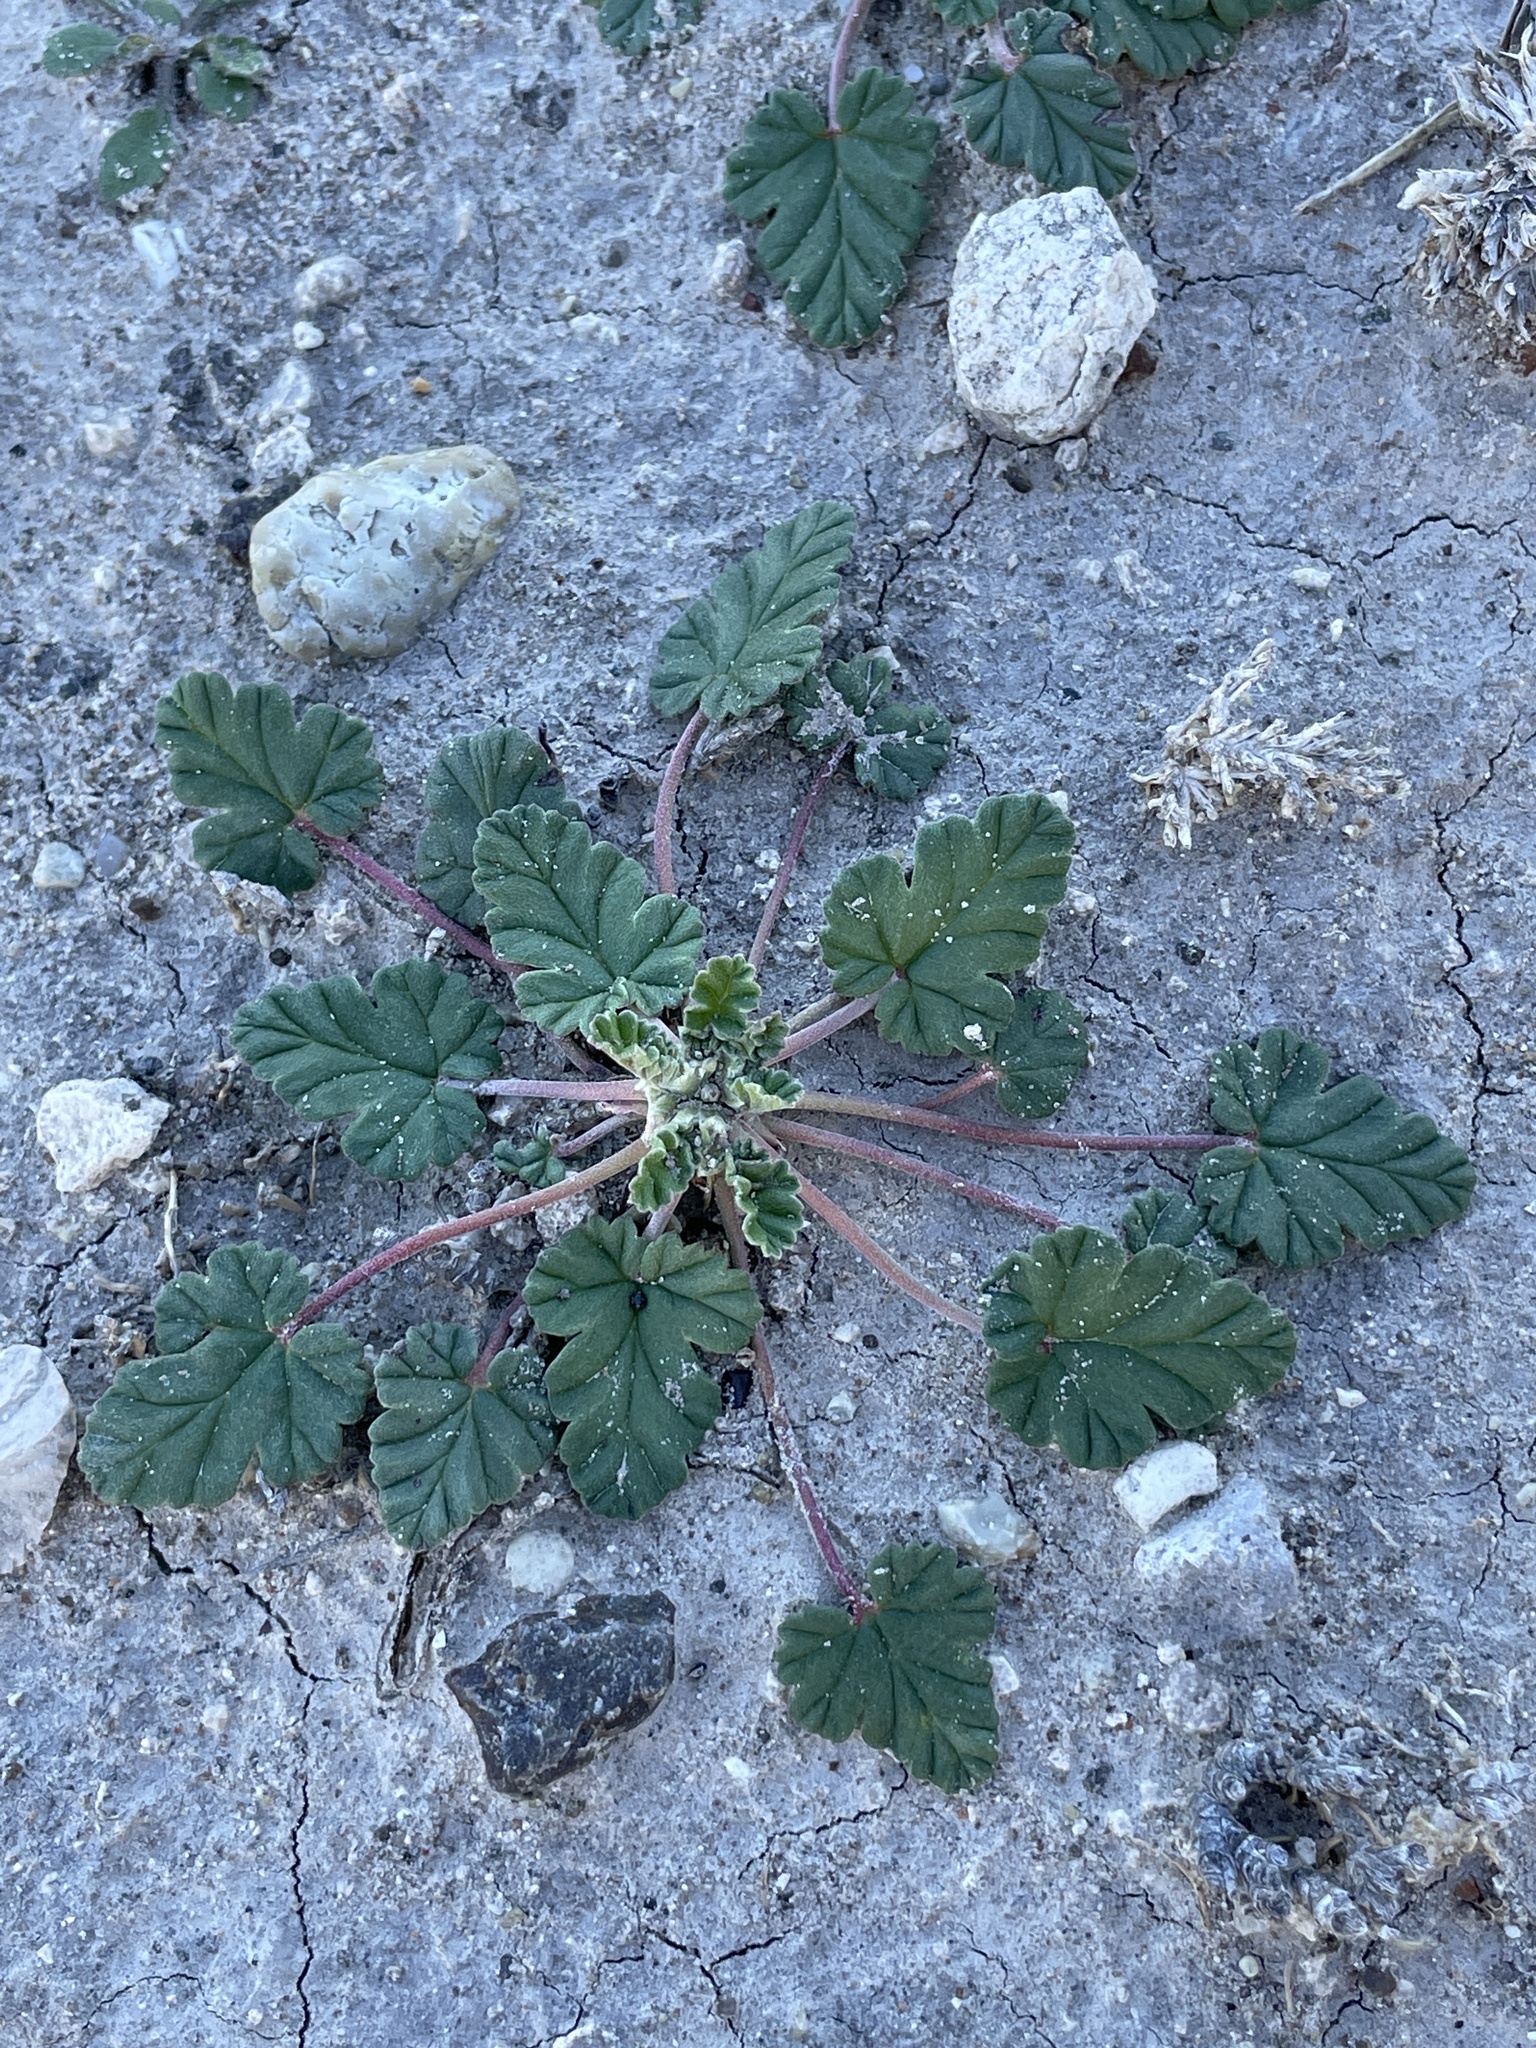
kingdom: Plantae
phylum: Tracheophyta
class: Magnoliopsida
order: Geraniales
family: Geraniaceae
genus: Erodium
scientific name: Erodium texanum
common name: Texas stork's-bill
